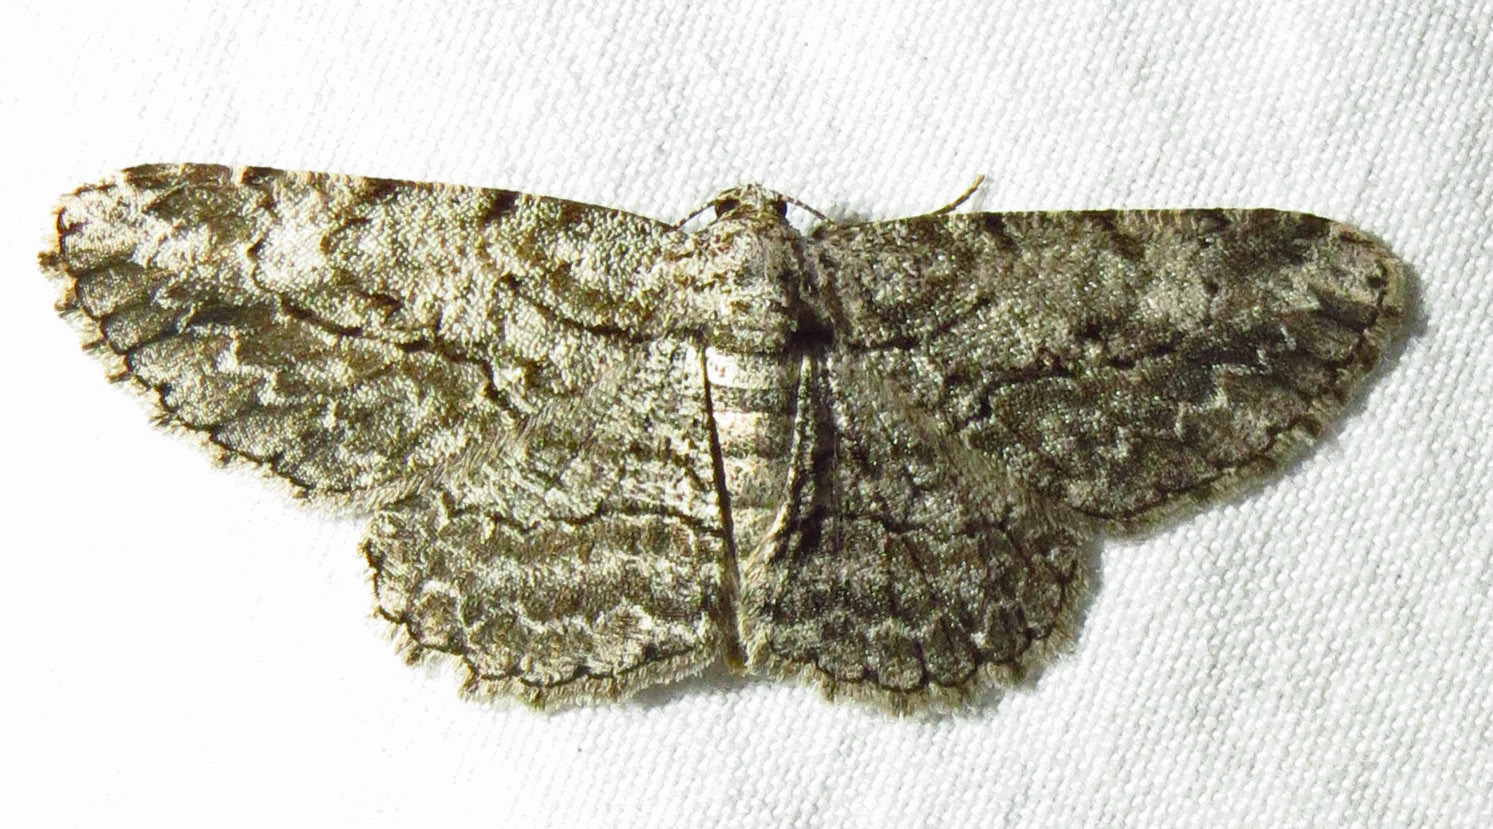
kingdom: Animalia
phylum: Arthropoda
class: Insecta
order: Lepidoptera
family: Geometridae
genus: Anavitrinella
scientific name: Anavitrinella pampinaria
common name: Common gray
